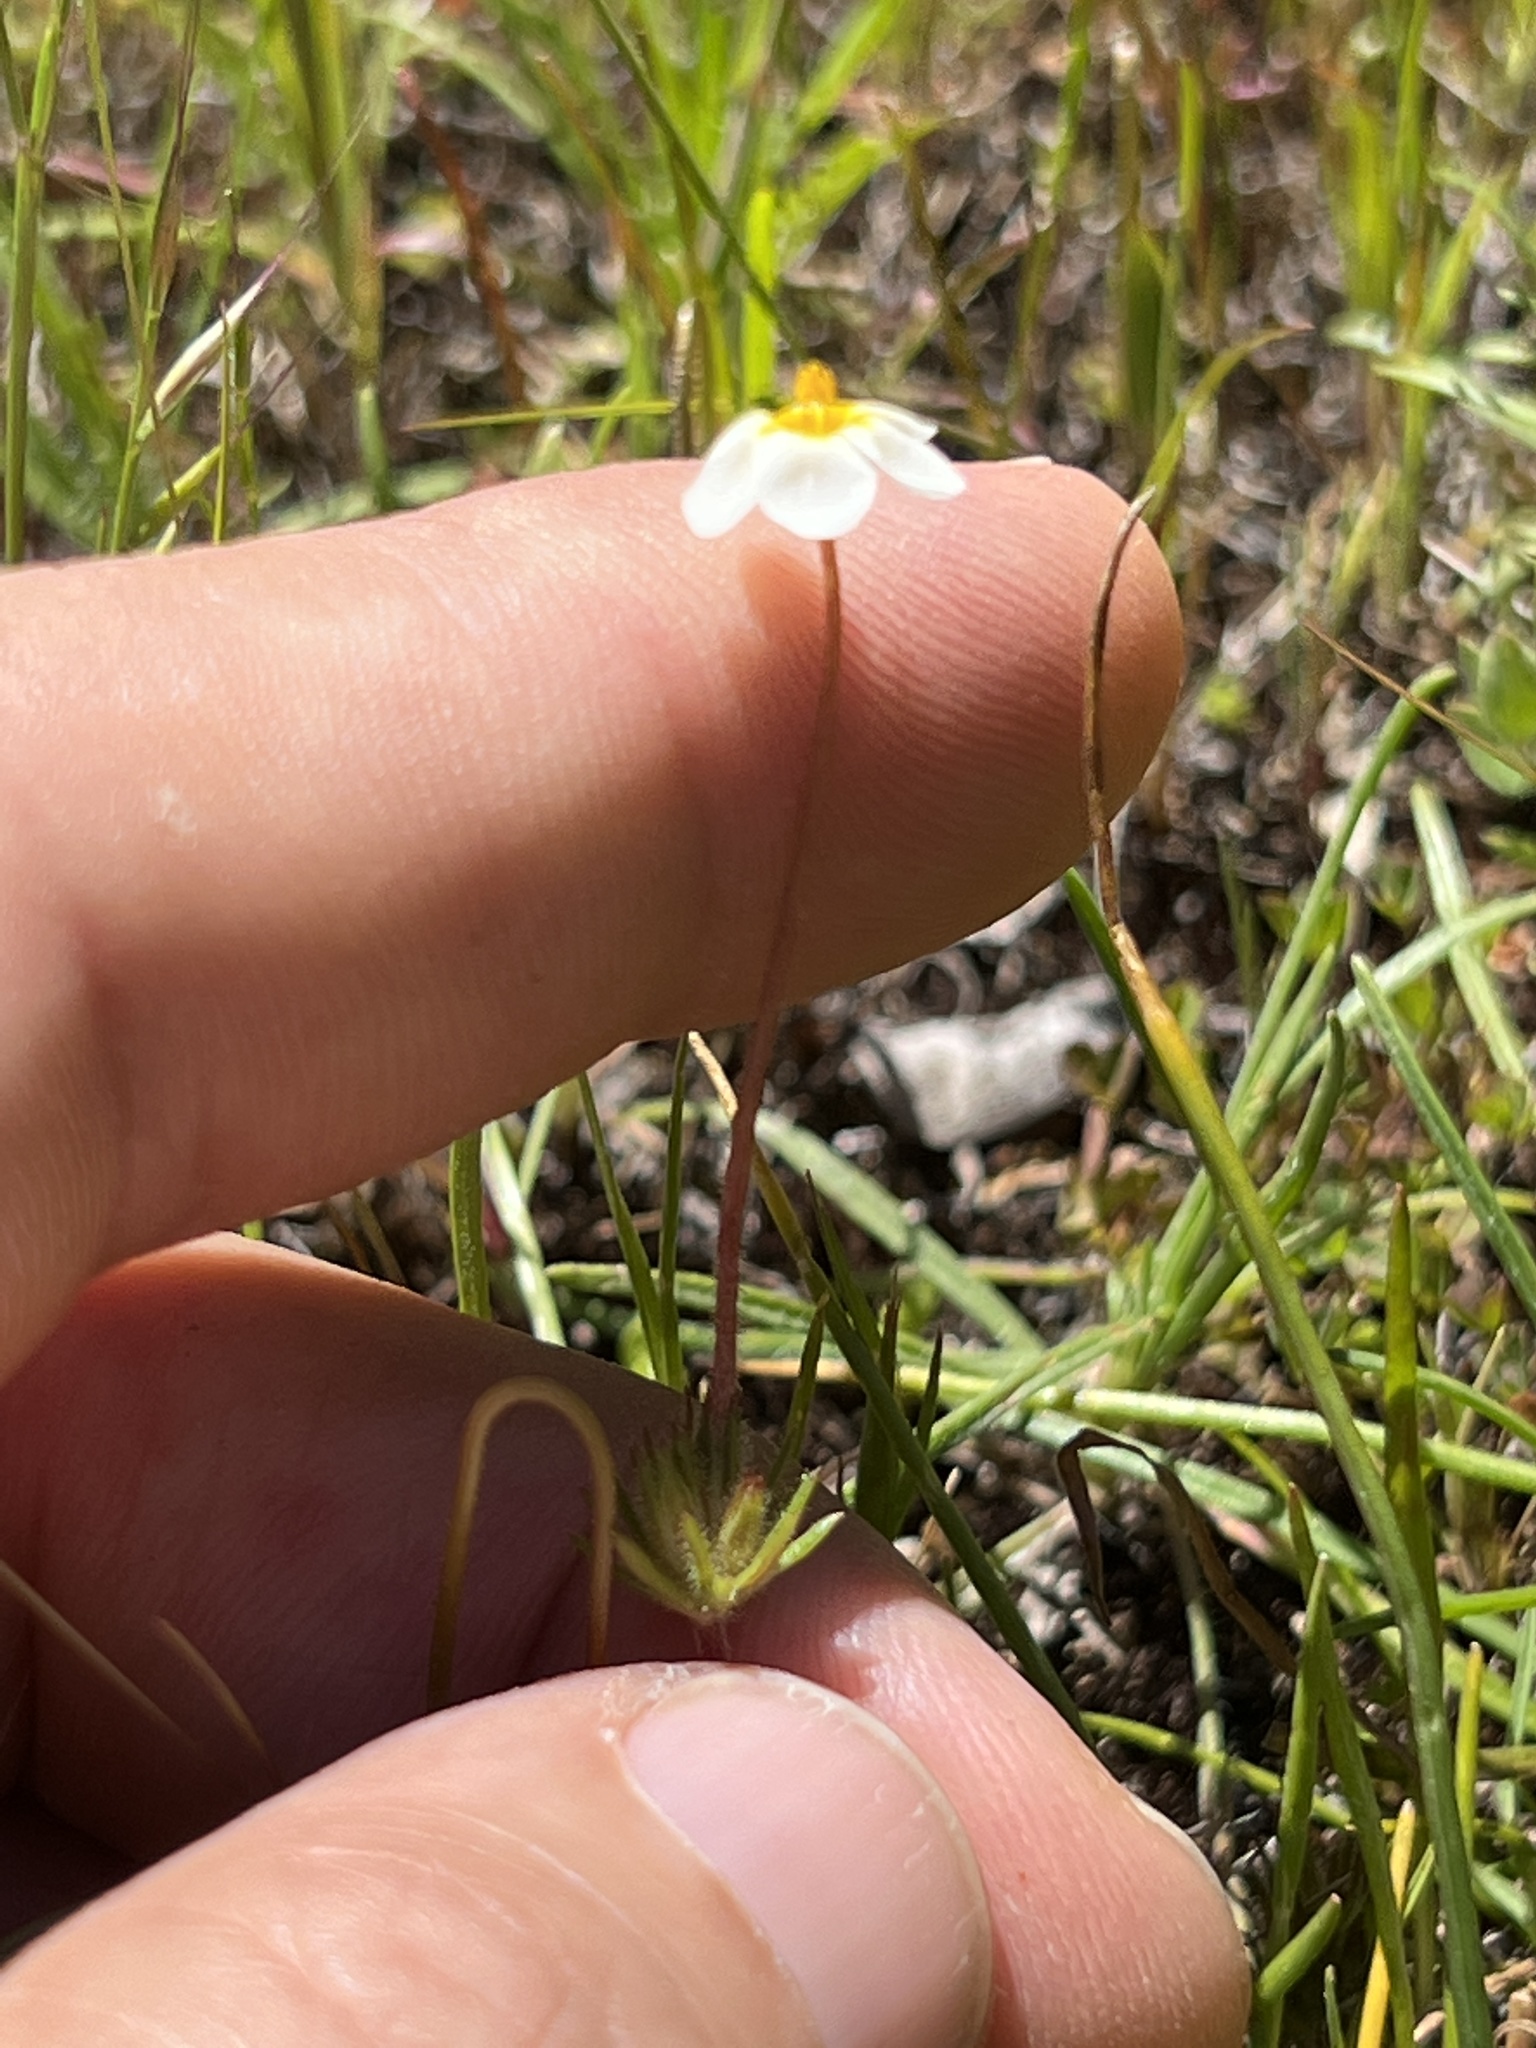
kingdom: Plantae
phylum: Tracheophyta
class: Magnoliopsida
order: Ericales
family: Polemoniaceae
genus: Leptosiphon
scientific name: Leptosiphon parviflorus
